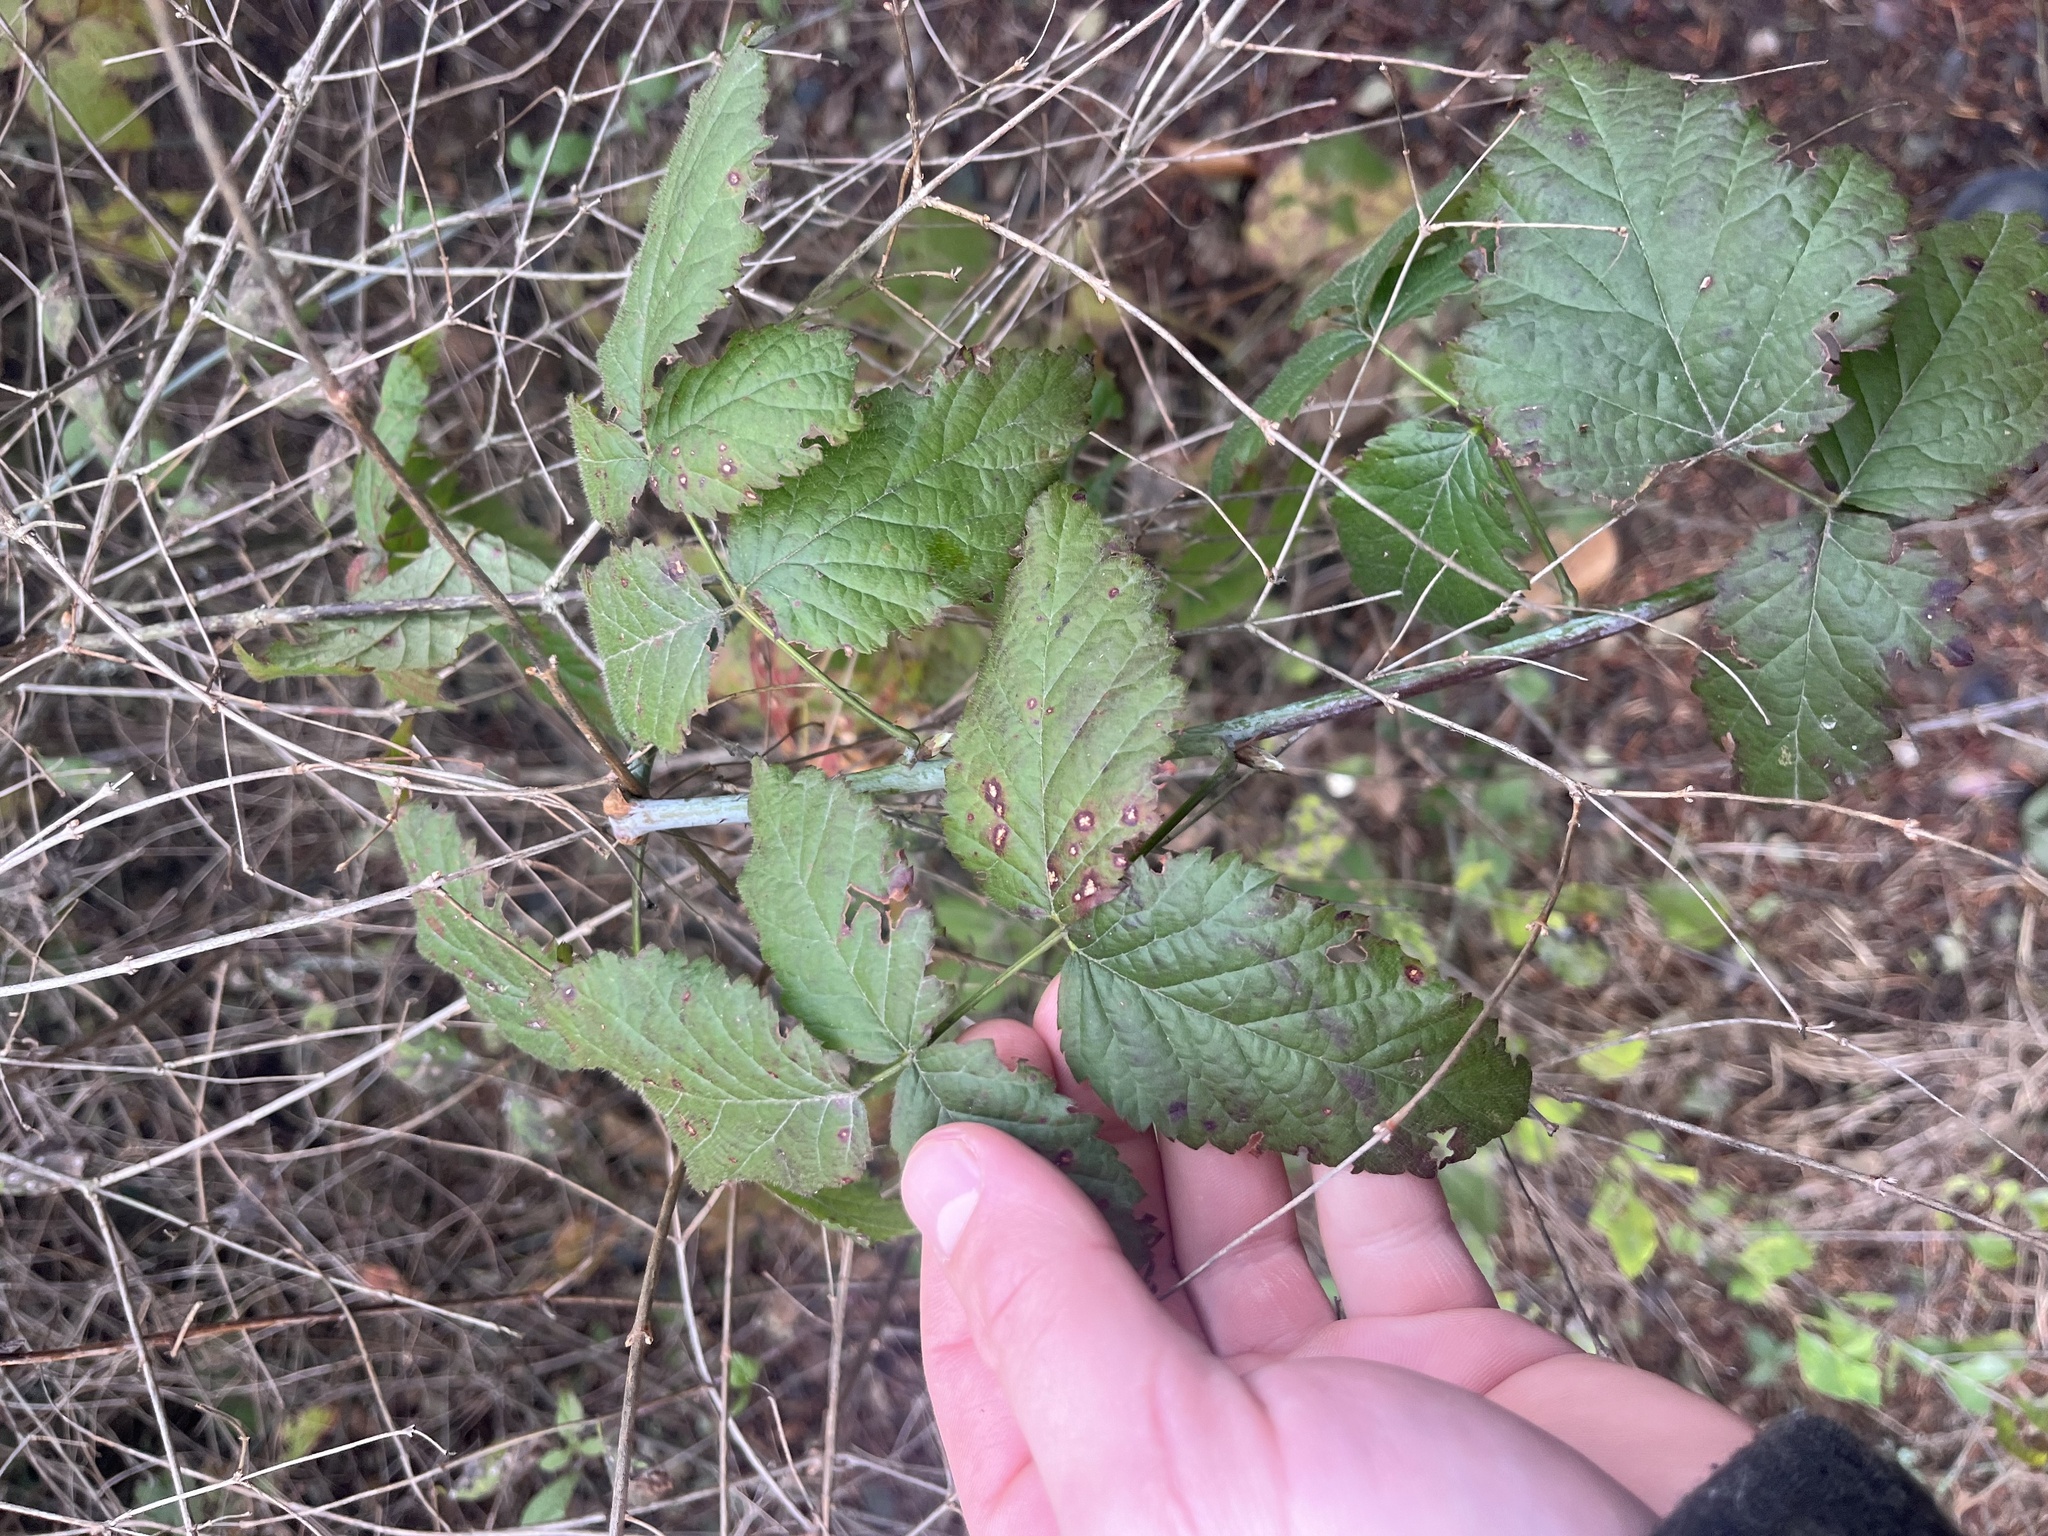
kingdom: Plantae
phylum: Tracheophyta
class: Magnoliopsida
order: Rosales
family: Rosaceae
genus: Rubus
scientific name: Rubus ursinus
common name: Pacific blackberry
